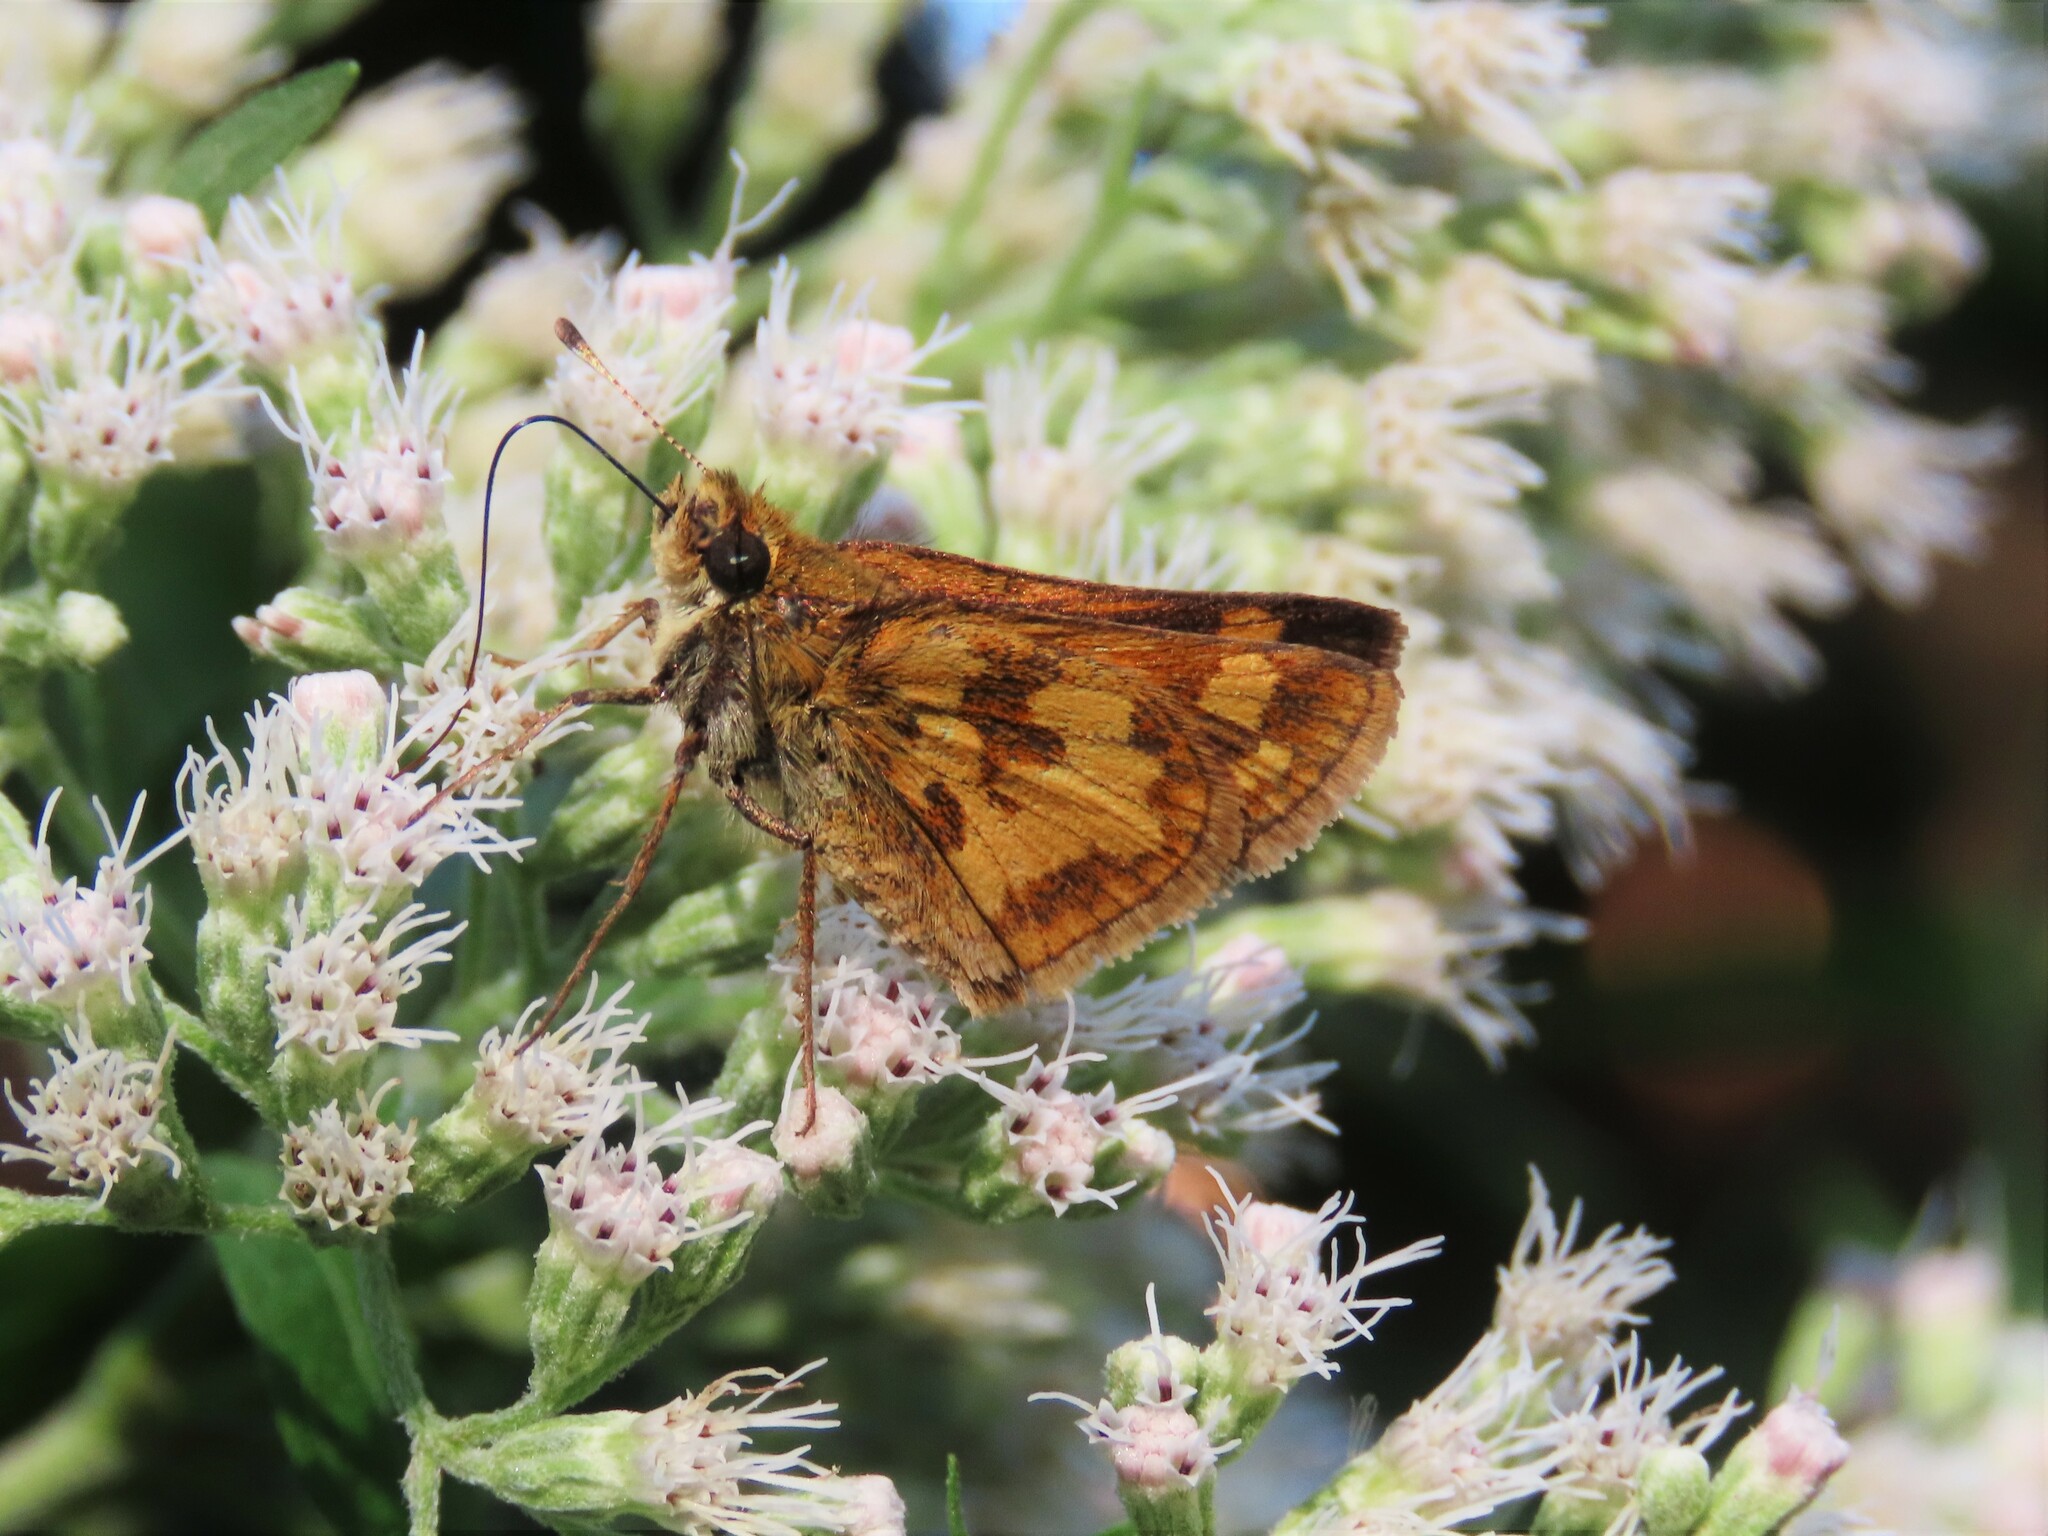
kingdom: Animalia
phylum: Arthropoda
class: Insecta
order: Lepidoptera
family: Hesperiidae
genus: Polites
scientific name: Polites coras
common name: Peck's skipper
